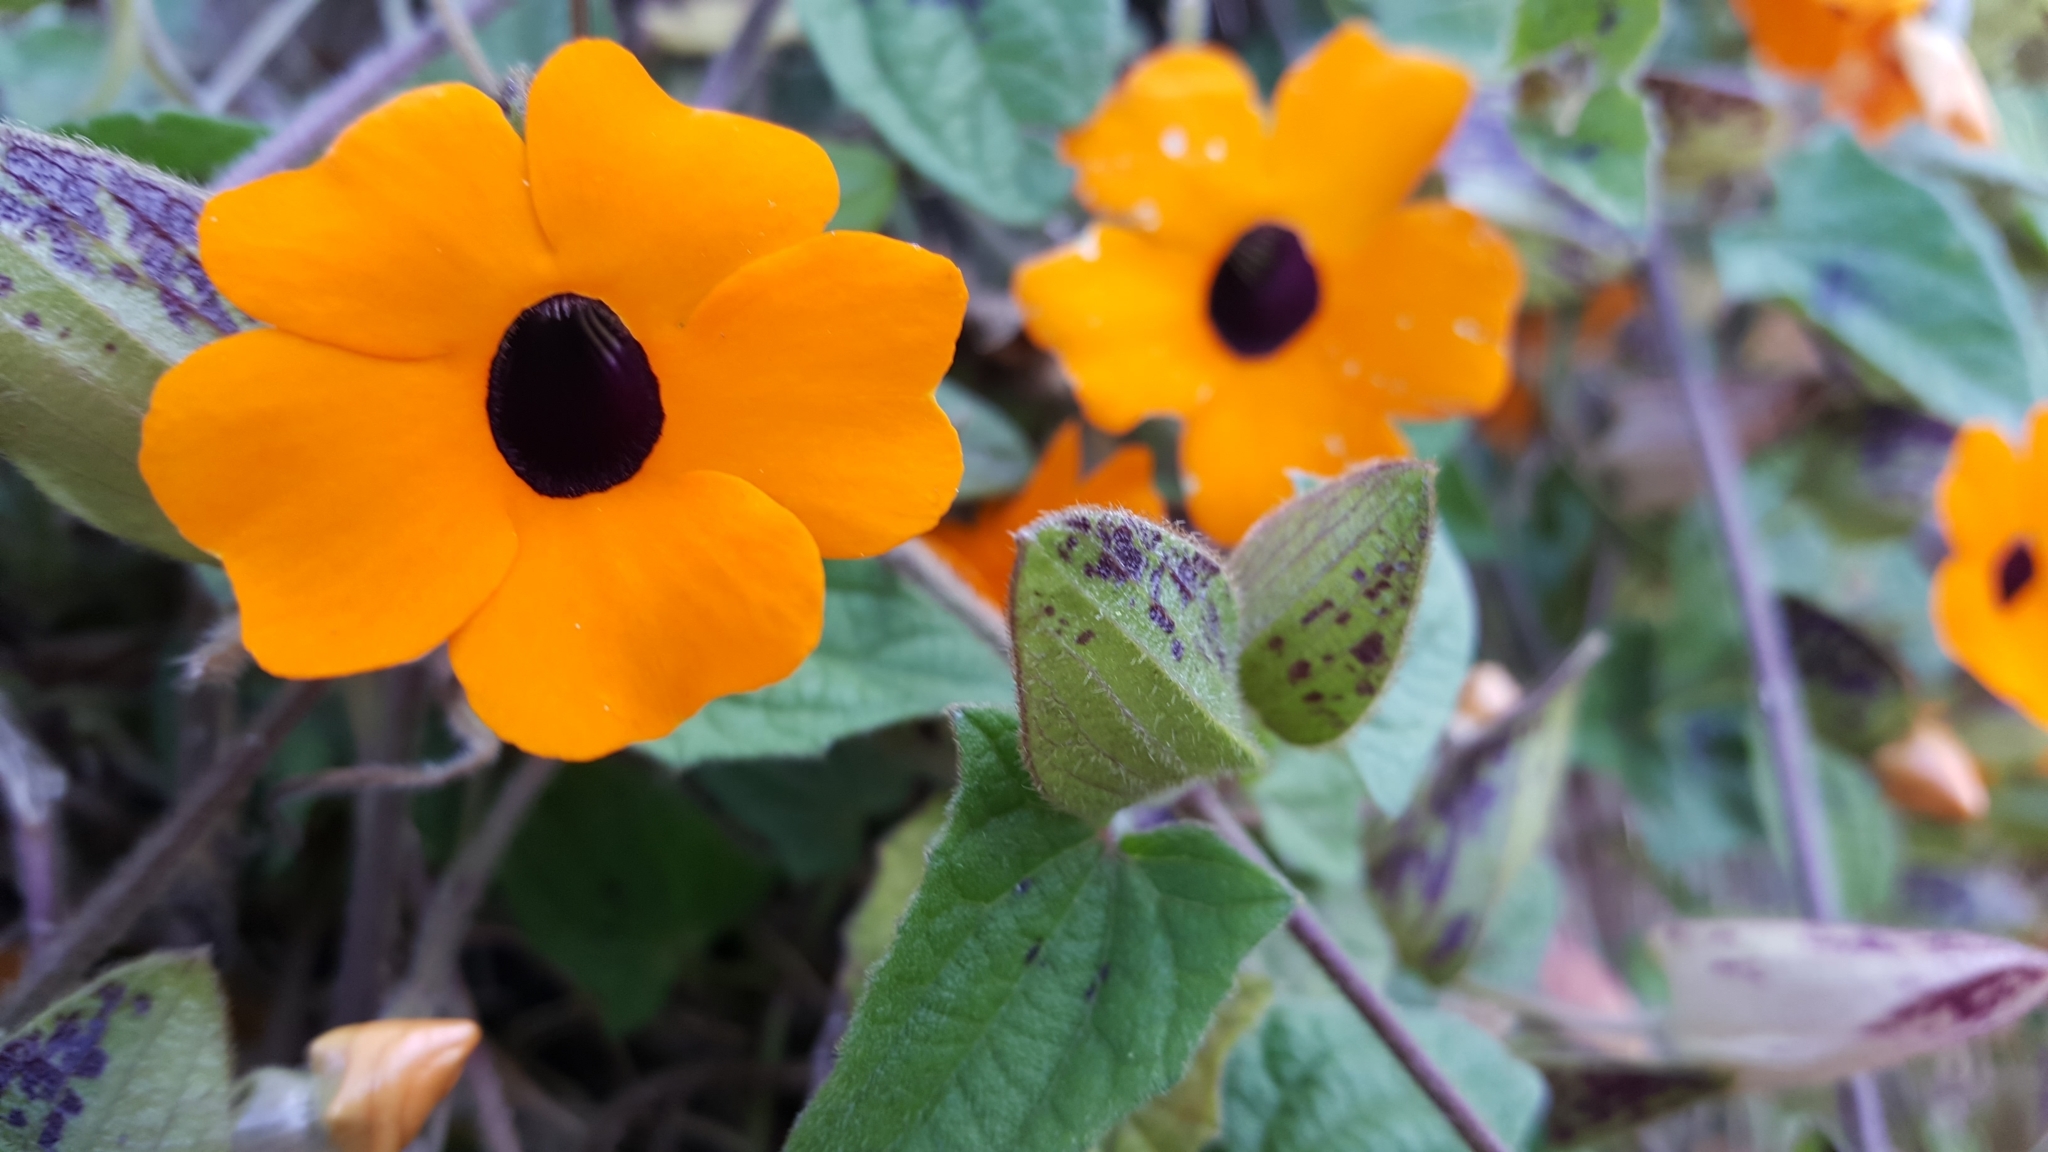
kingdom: Plantae
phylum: Tracheophyta
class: Magnoliopsida
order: Lamiales
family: Acanthaceae
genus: Thunbergia
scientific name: Thunbergia alata
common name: Blackeyed susan vine
